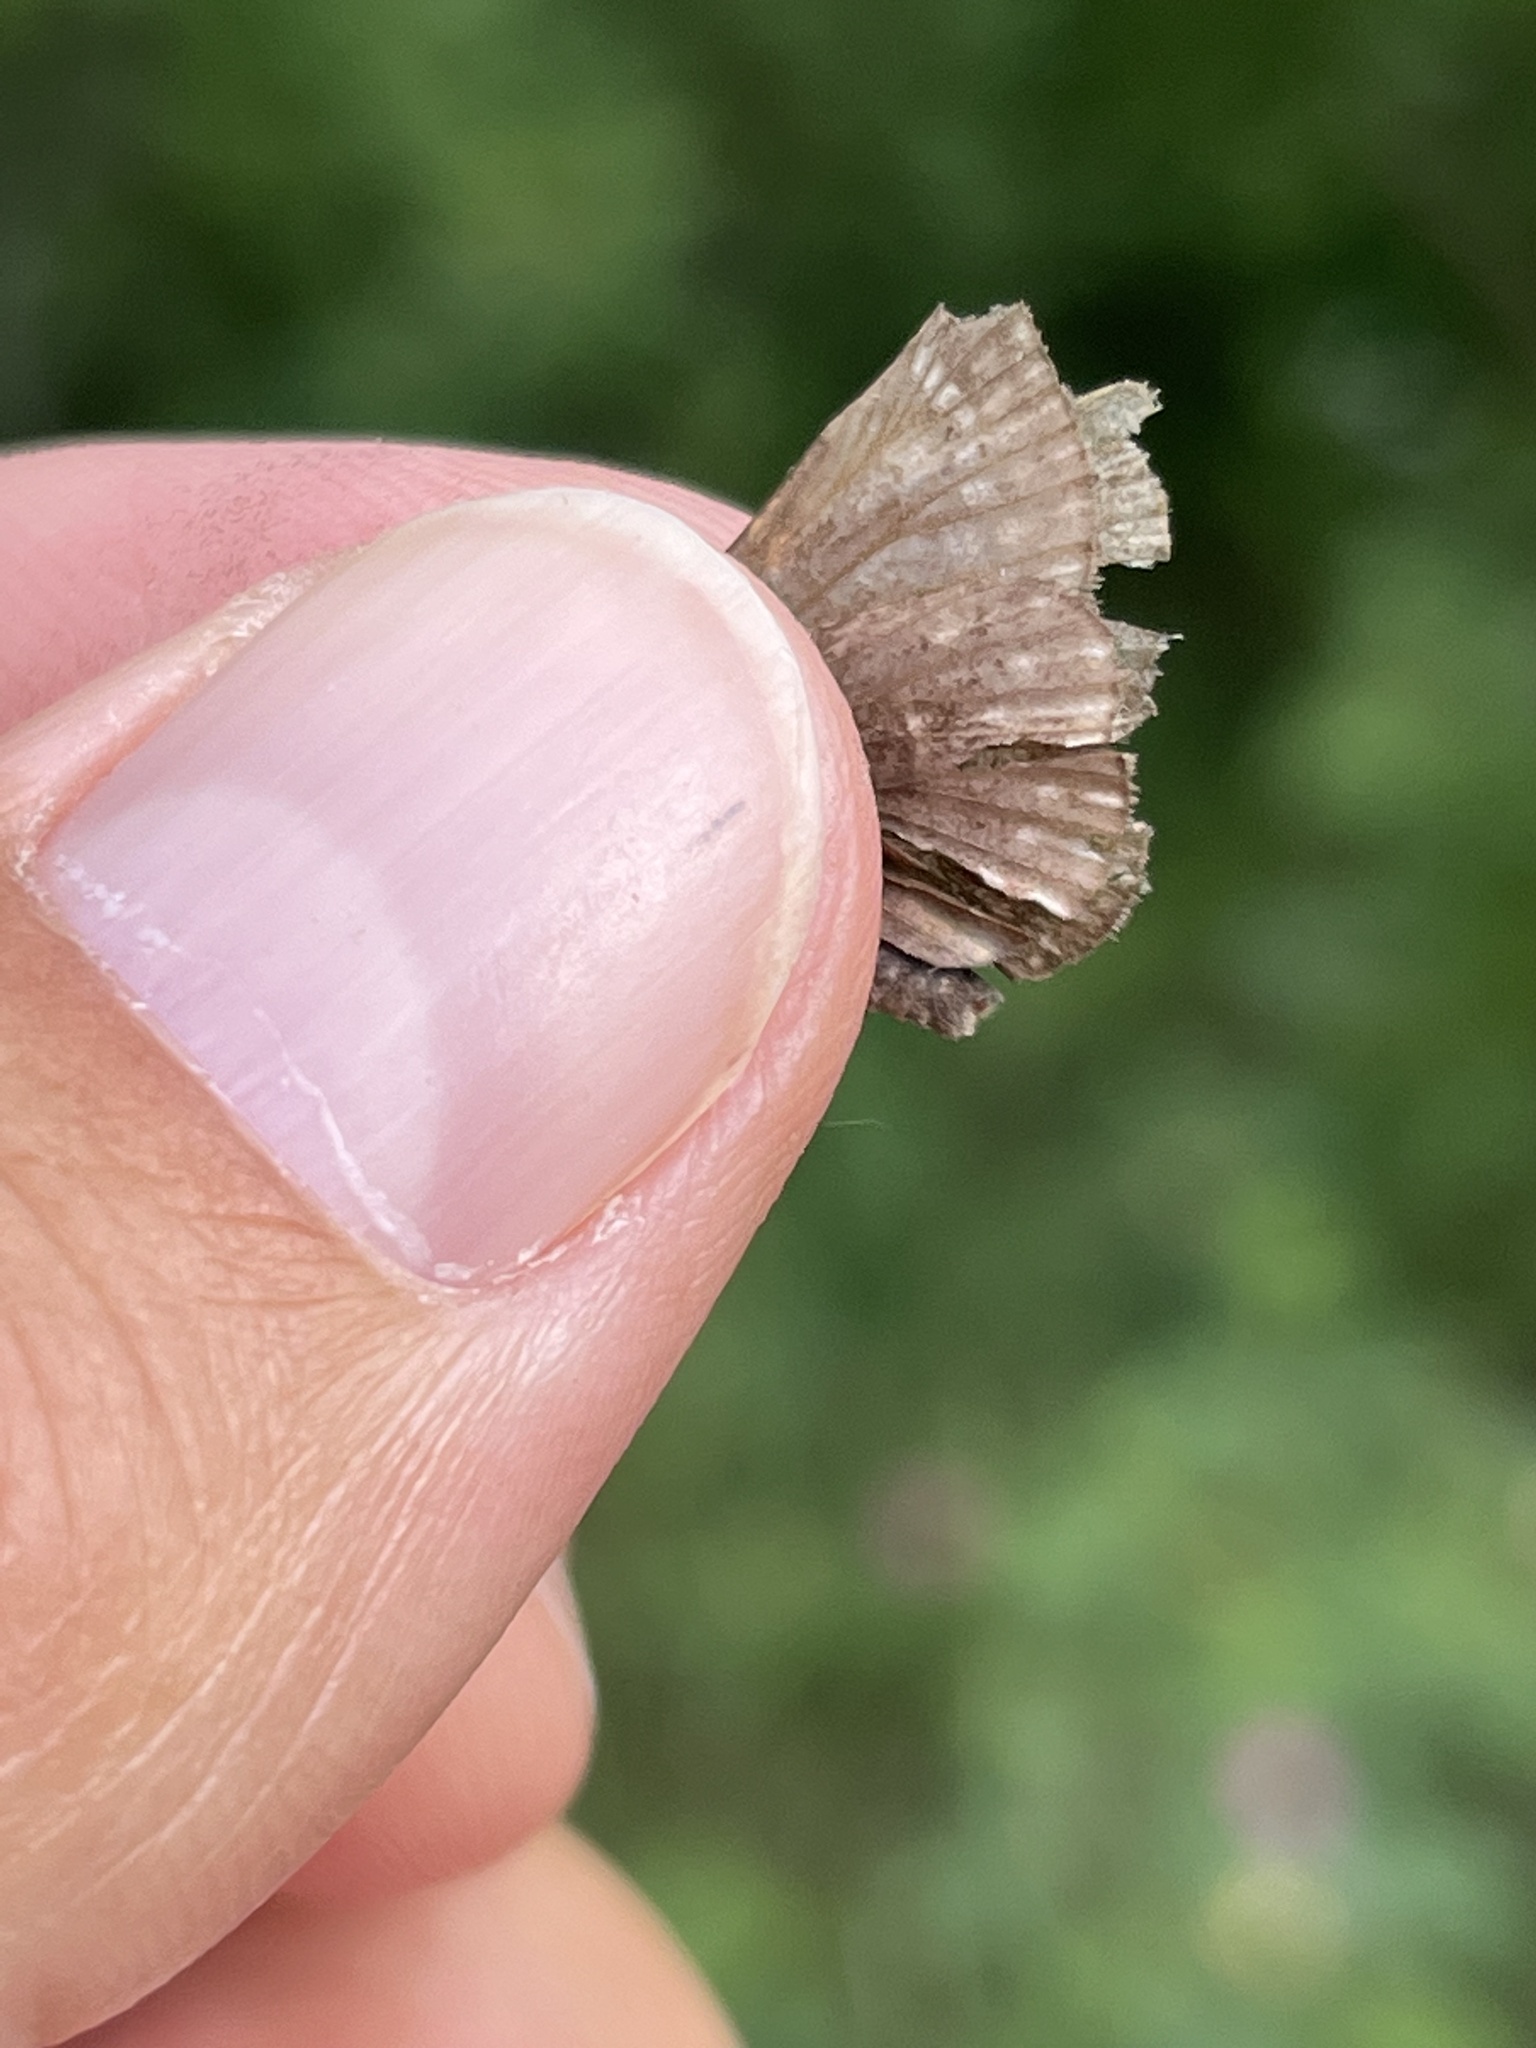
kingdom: Animalia
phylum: Arthropoda
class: Insecta
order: Lepidoptera
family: Hesperiidae
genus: Erynnis
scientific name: Erynnis persius
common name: Persius duskywing
